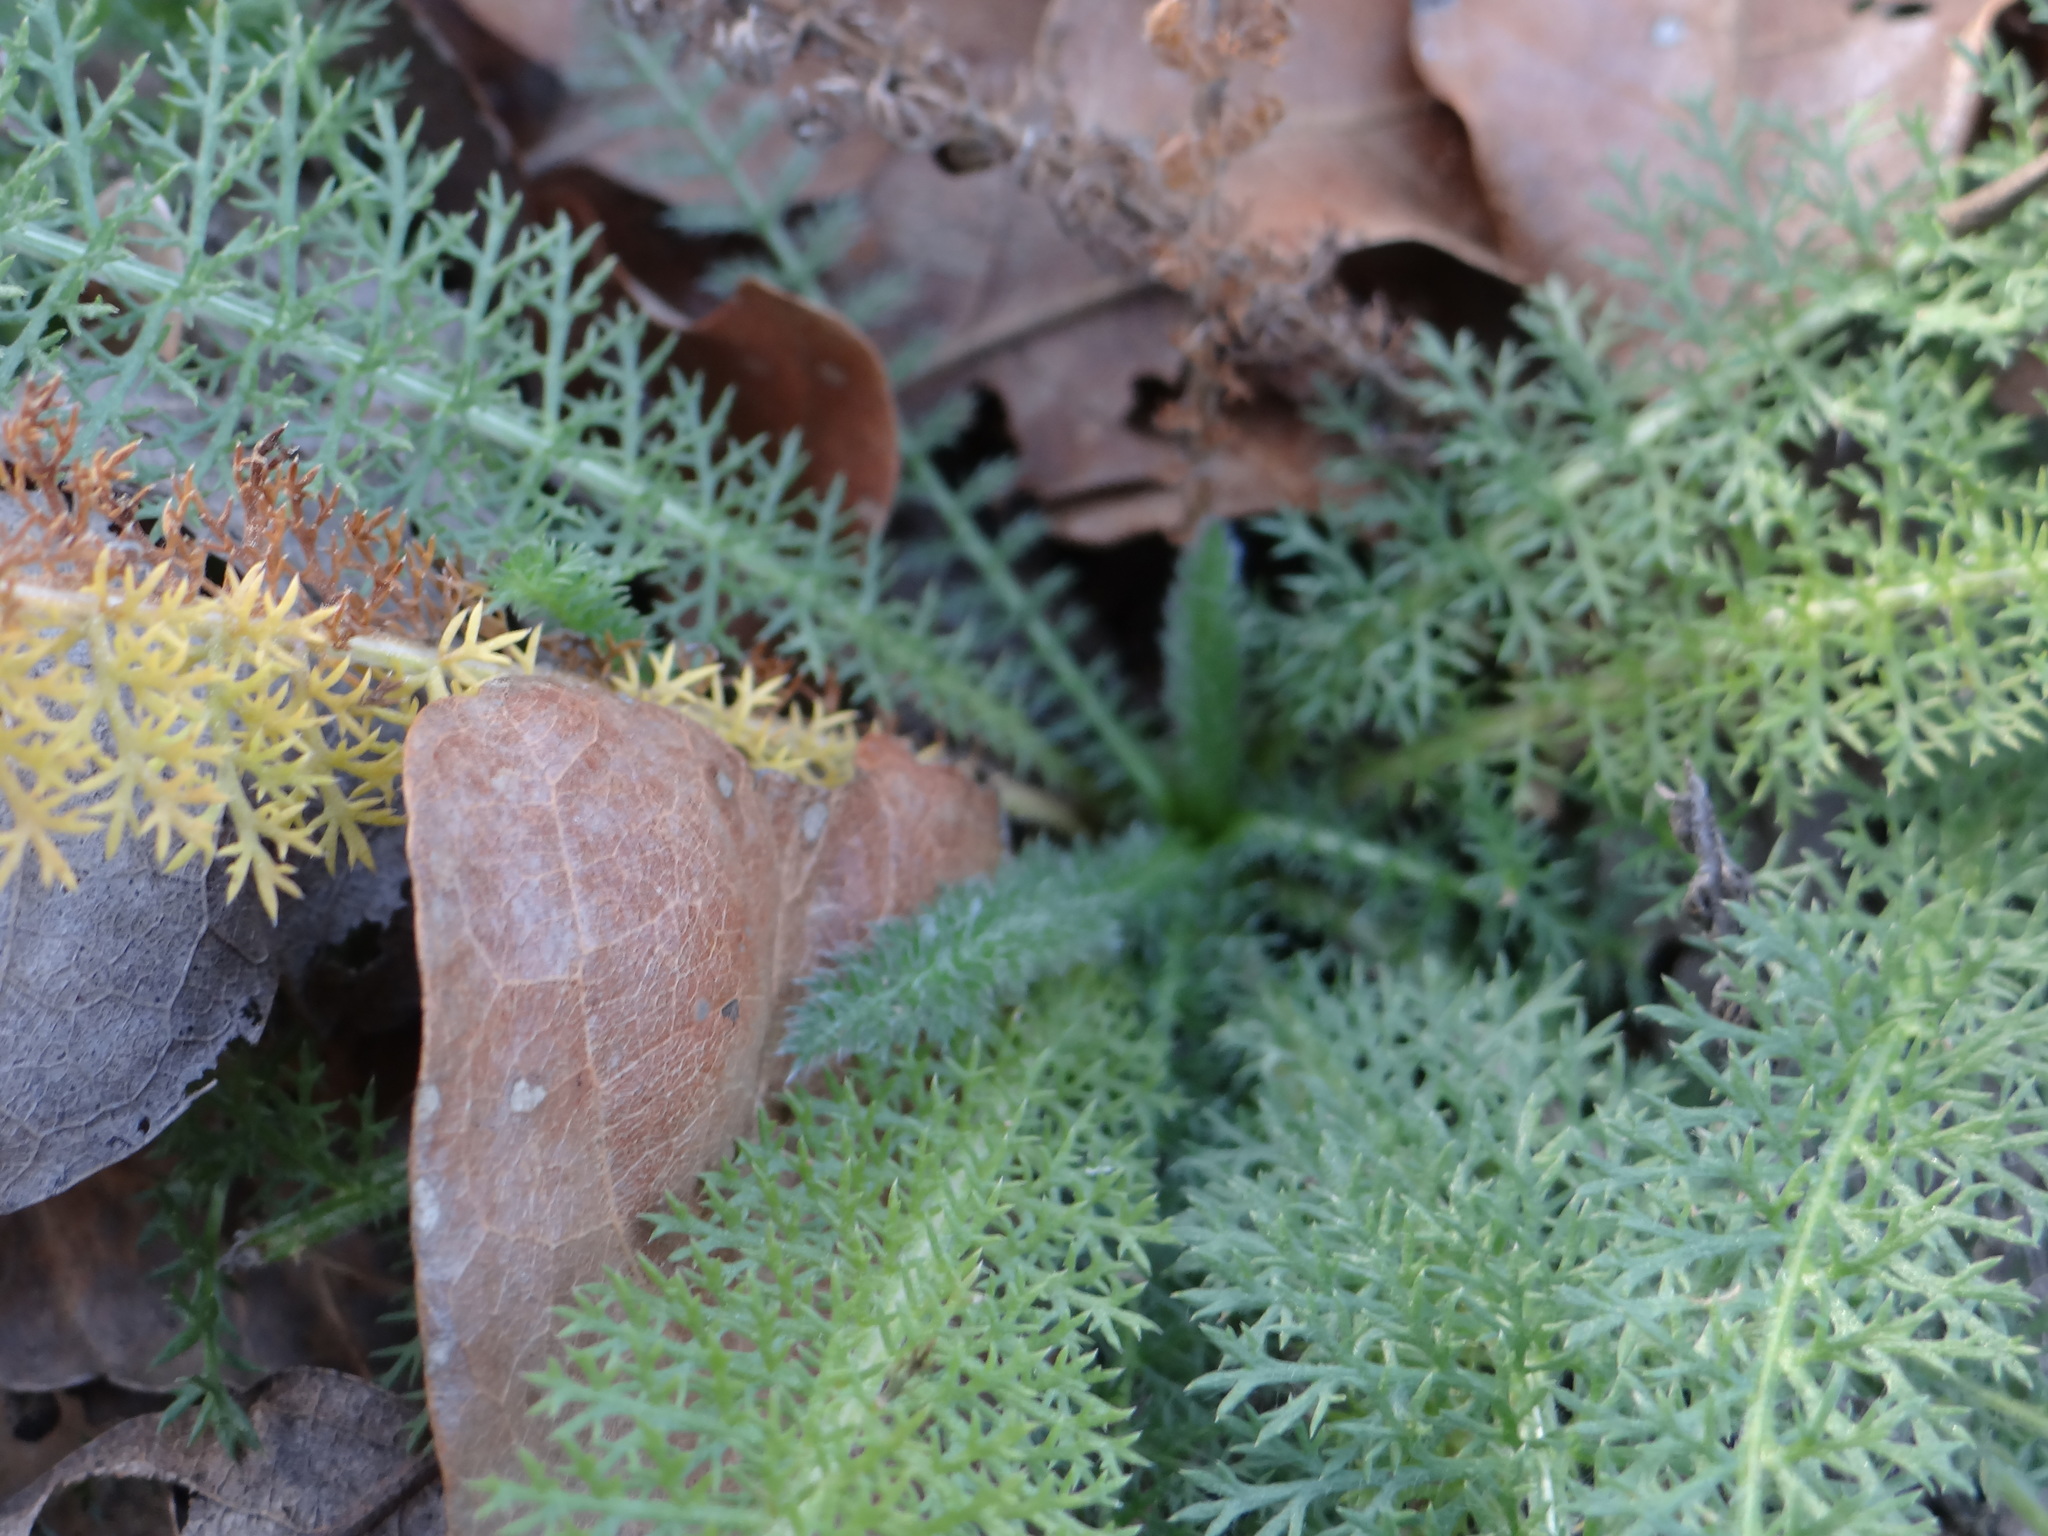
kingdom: Plantae
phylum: Tracheophyta
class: Magnoliopsida
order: Asterales
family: Asteraceae
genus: Achillea
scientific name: Achillea millefolium
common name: Yarrow
